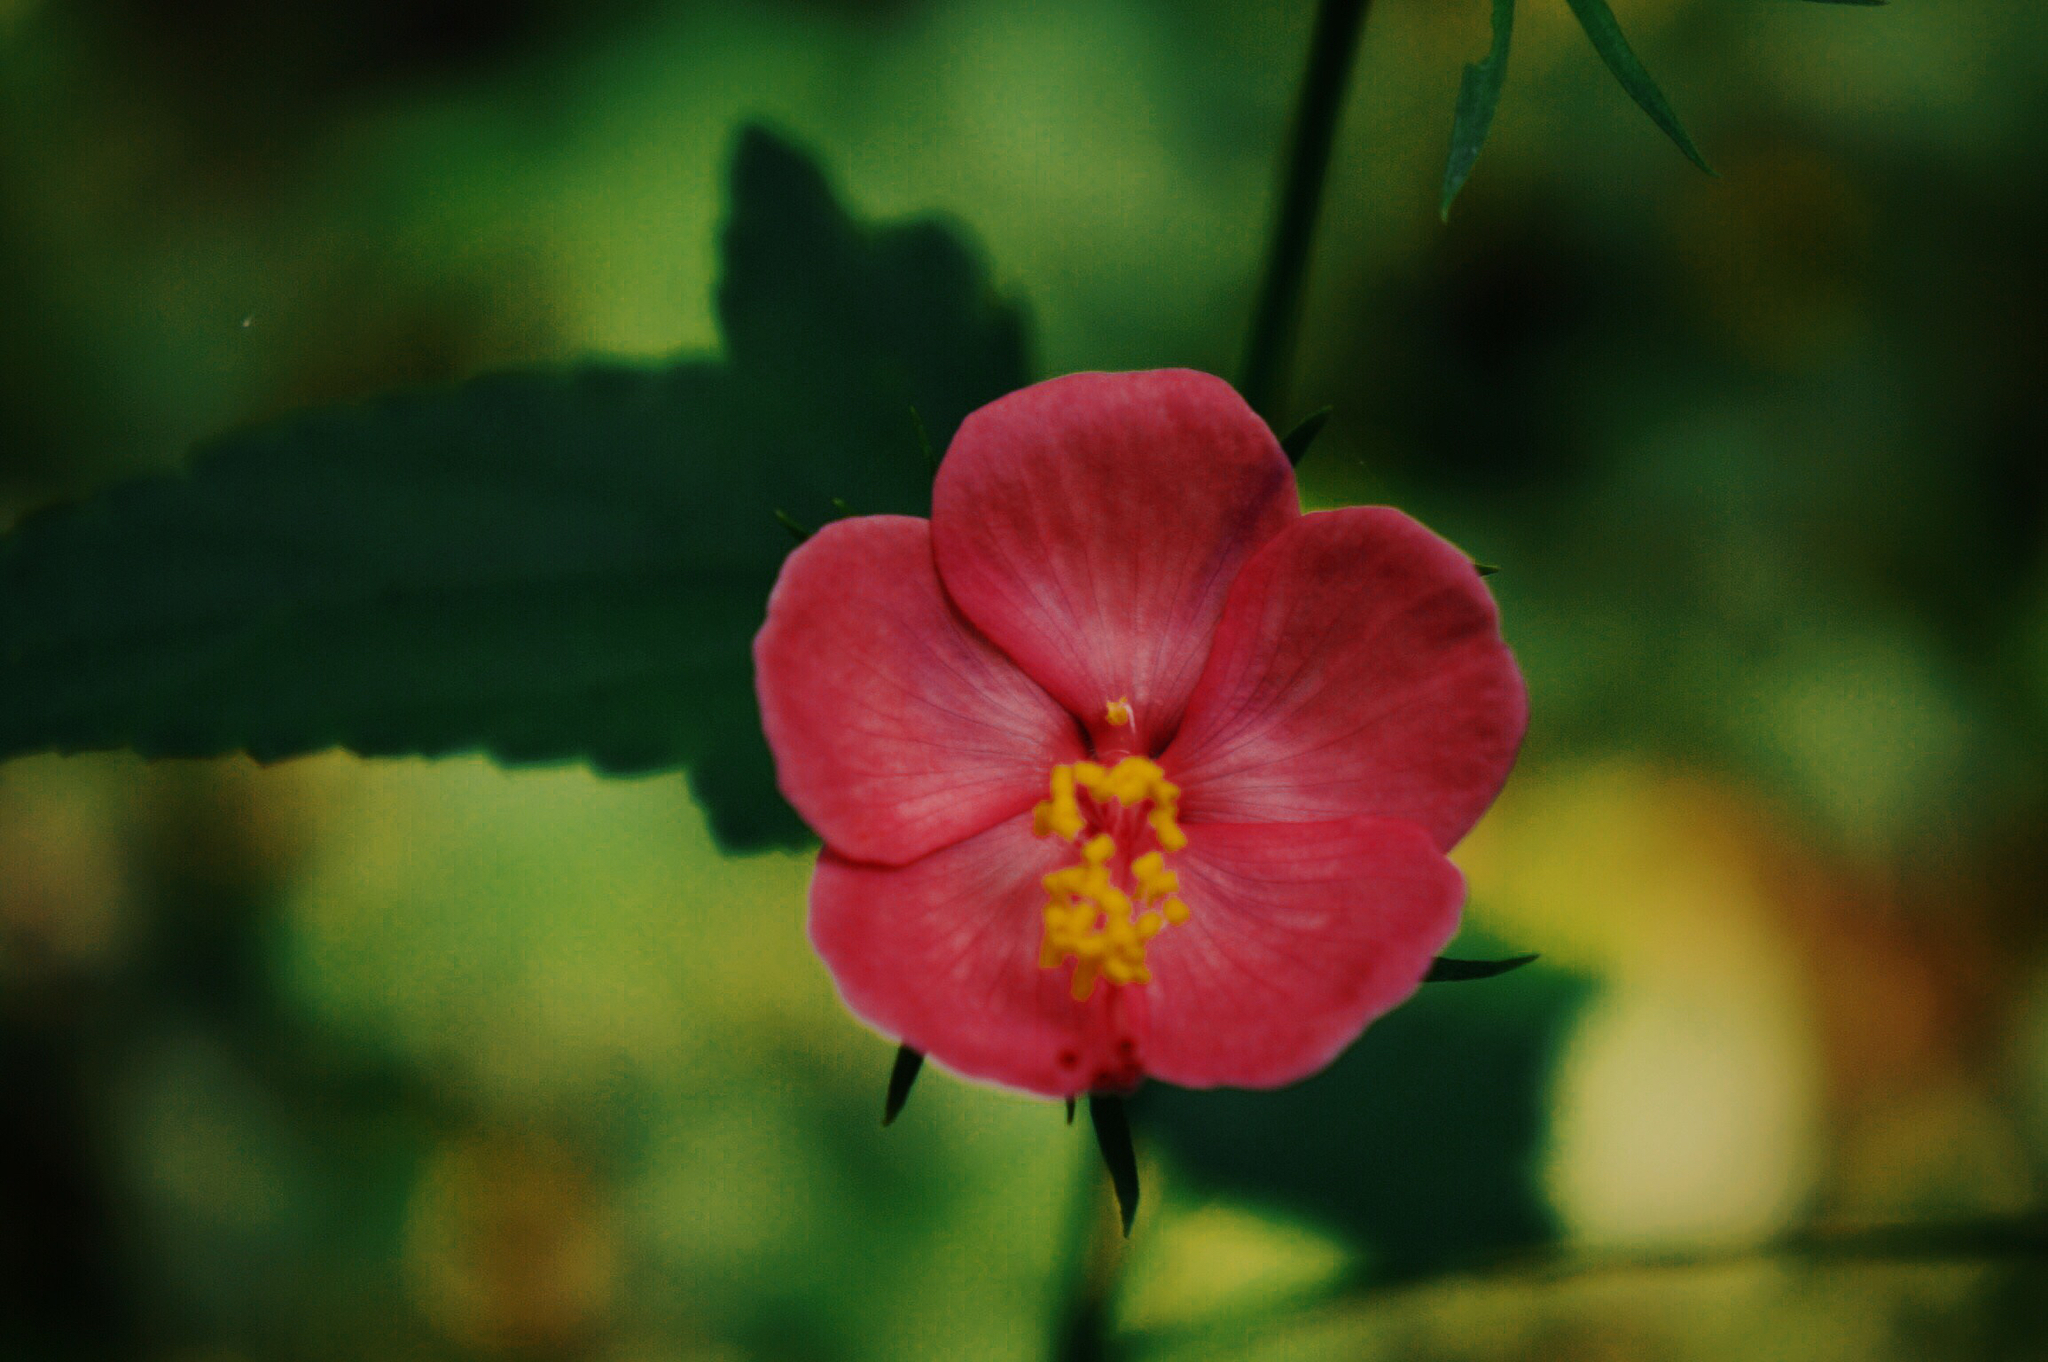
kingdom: Plantae
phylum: Tracheophyta
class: Magnoliopsida
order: Malvales
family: Malvaceae
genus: Hibiscus
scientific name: Hibiscus phoeniceus
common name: Brazilian rosemallow
